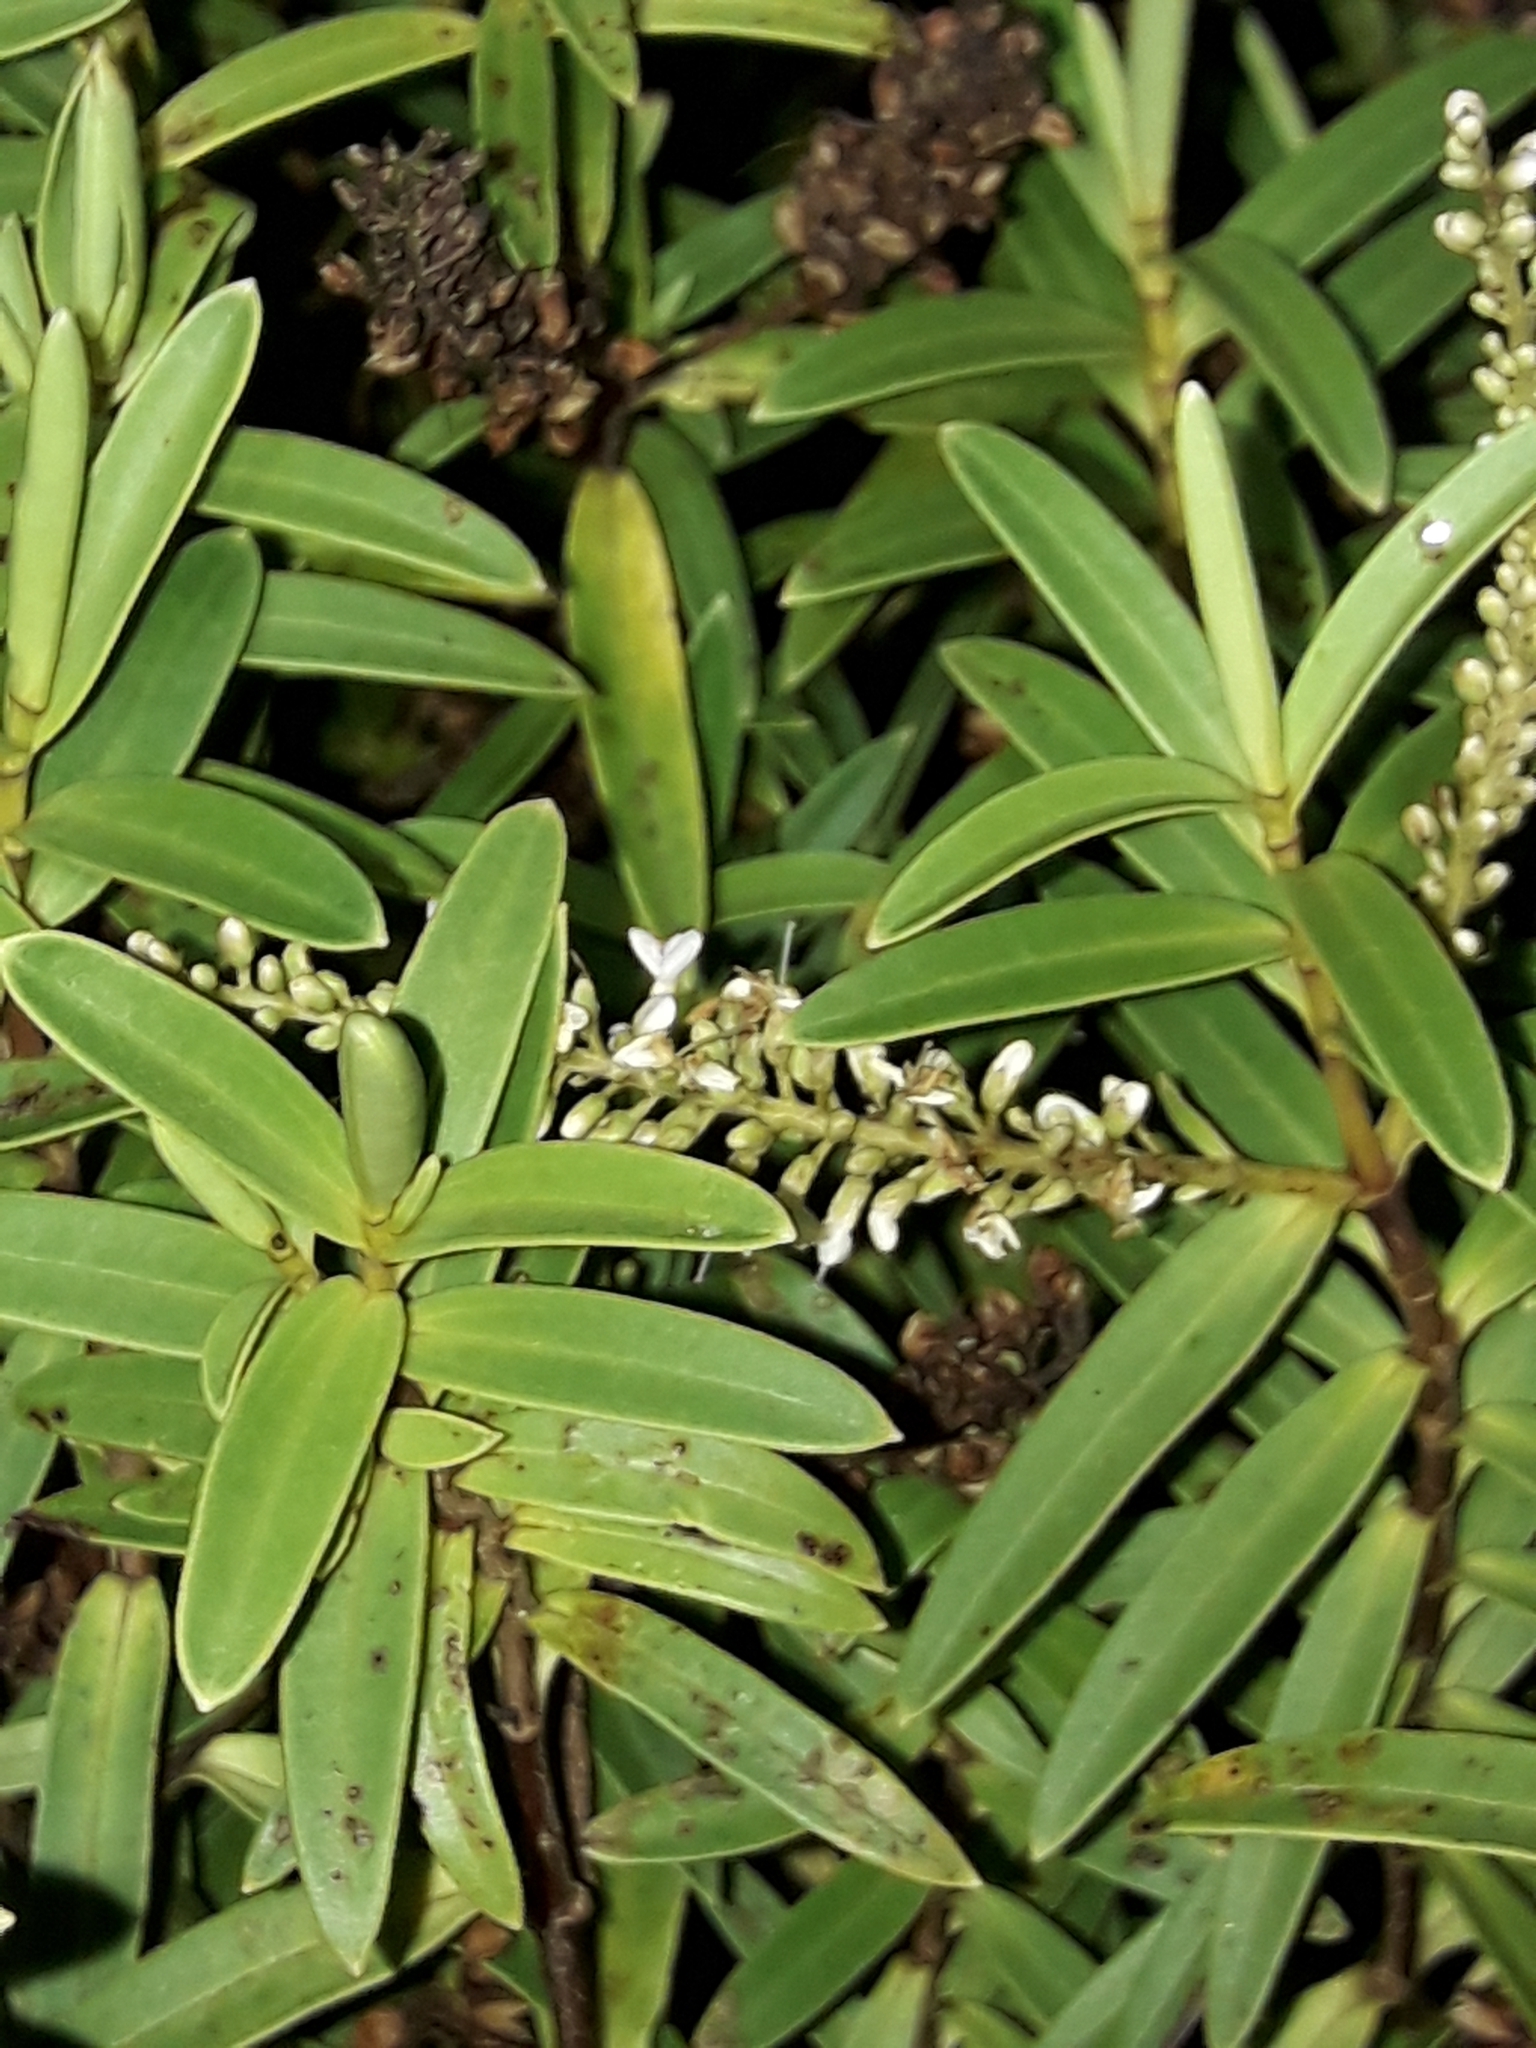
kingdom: Plantae
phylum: Tracheophyta
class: Magnoliopsida
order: Lamiales
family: Plantaginaceae
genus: Veronica
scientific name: Veronica parviflora
